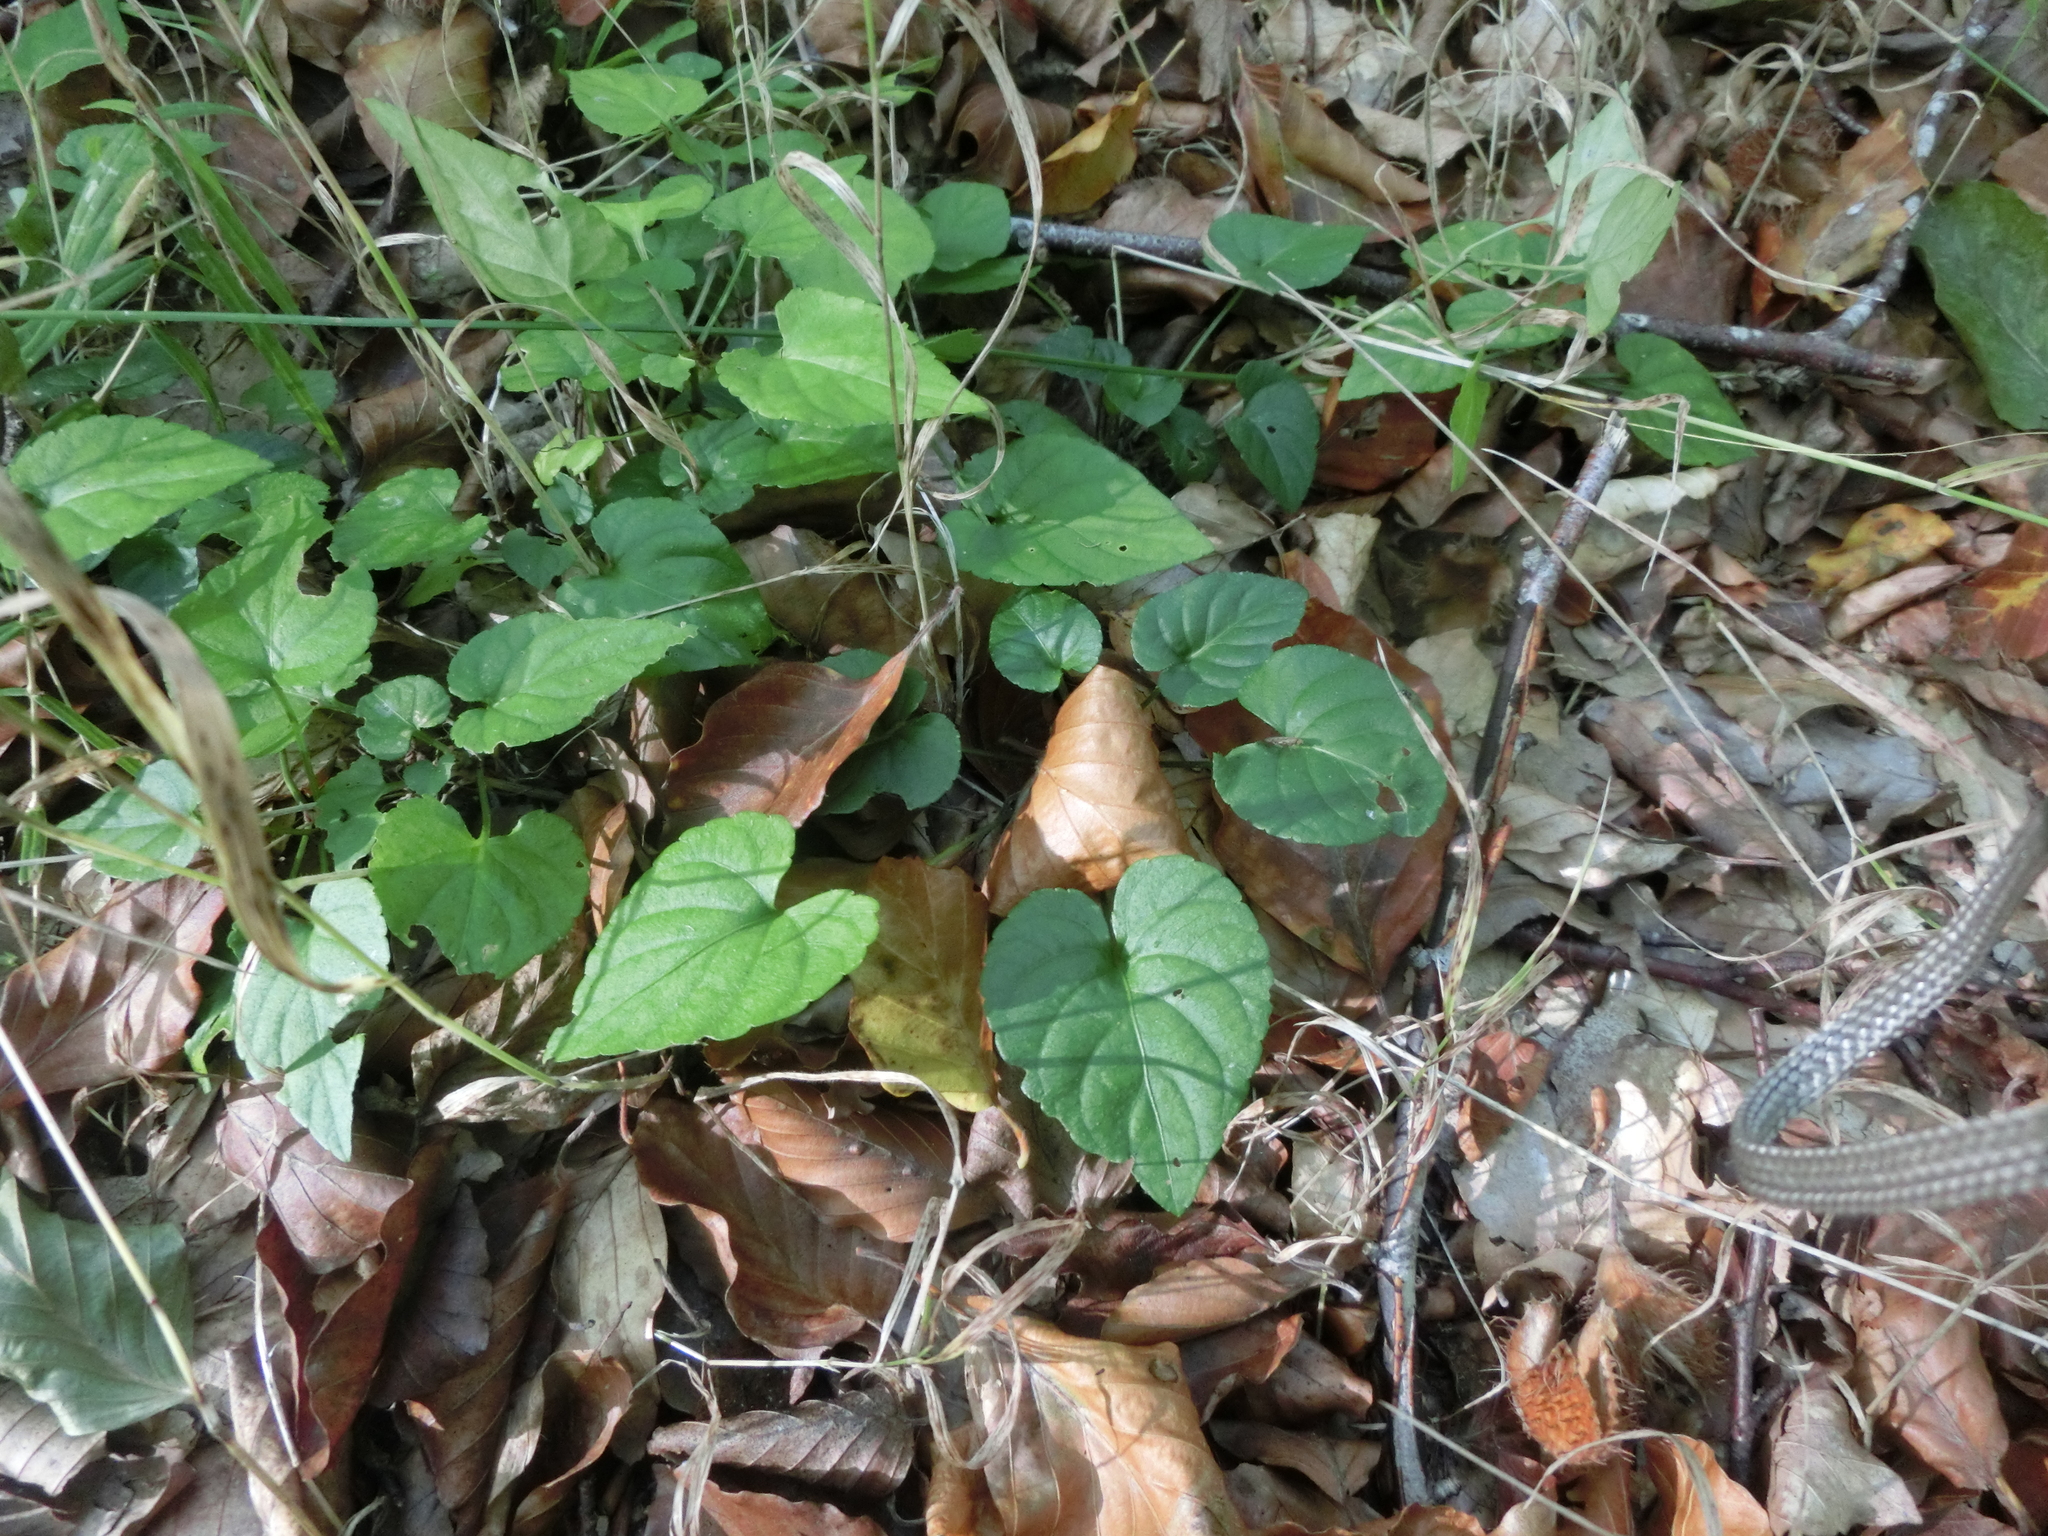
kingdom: Plantae
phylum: Tracheophyta
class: Magnoliopsida
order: Malpighiales
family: Violaceae
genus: Viola
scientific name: Viola reichenbachiana
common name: Early dog-violet
